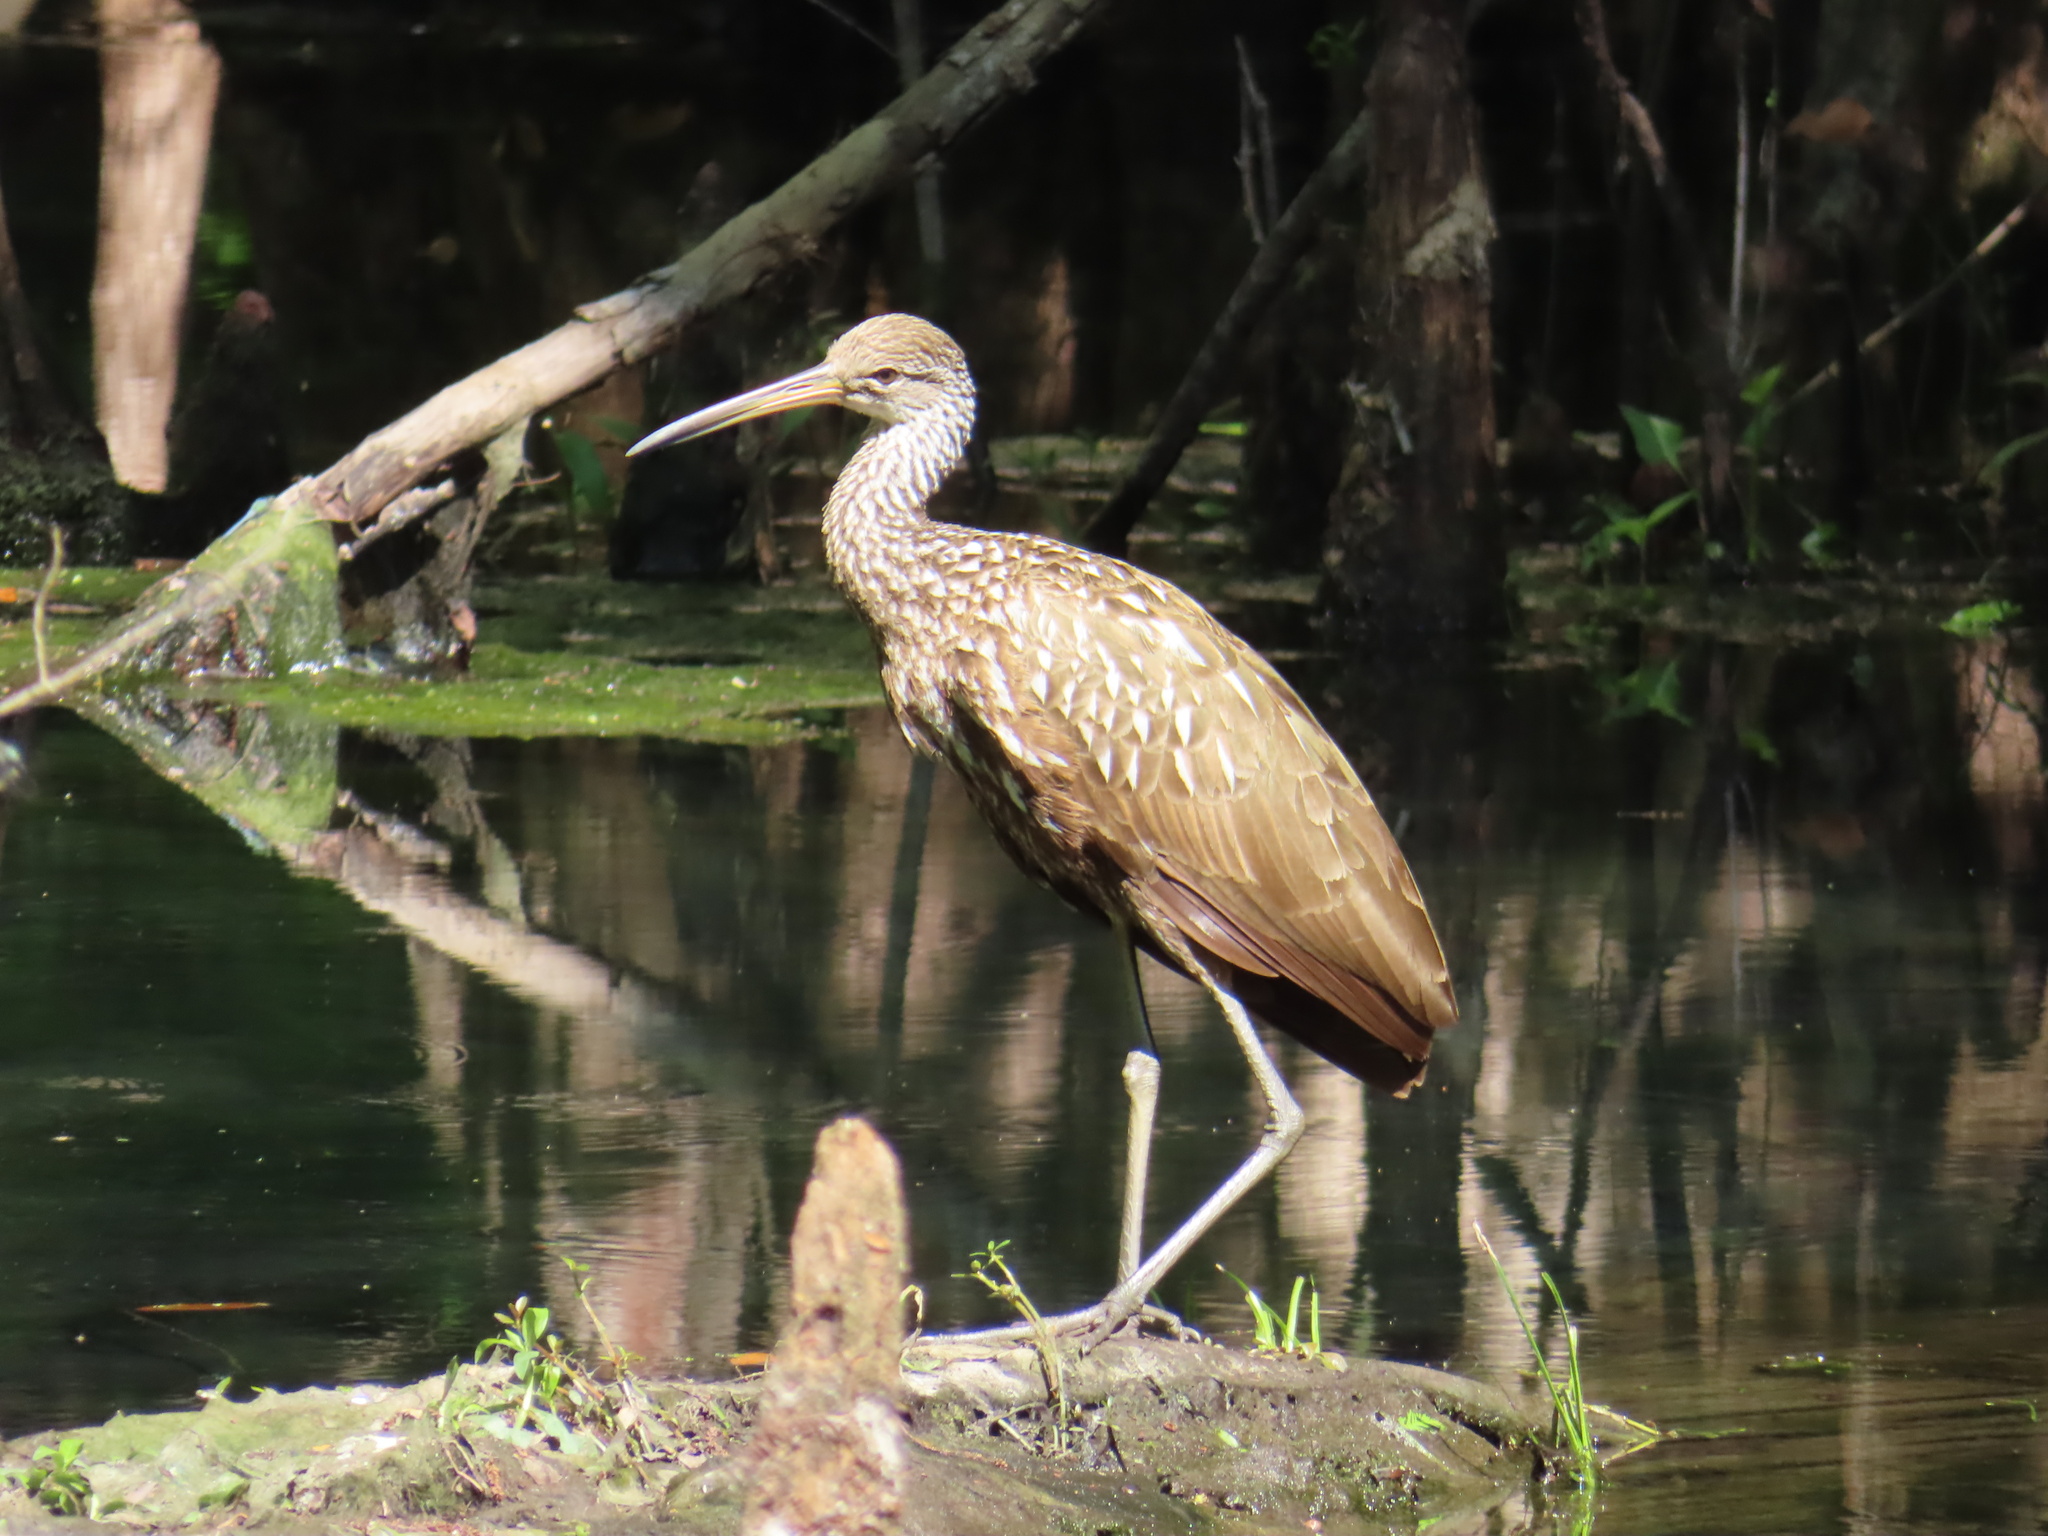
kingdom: Animalia
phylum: Chordata
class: Aves
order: Gruiformes
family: Aramidae
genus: Aramus
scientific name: Aramus guarauna
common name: Limpkin
